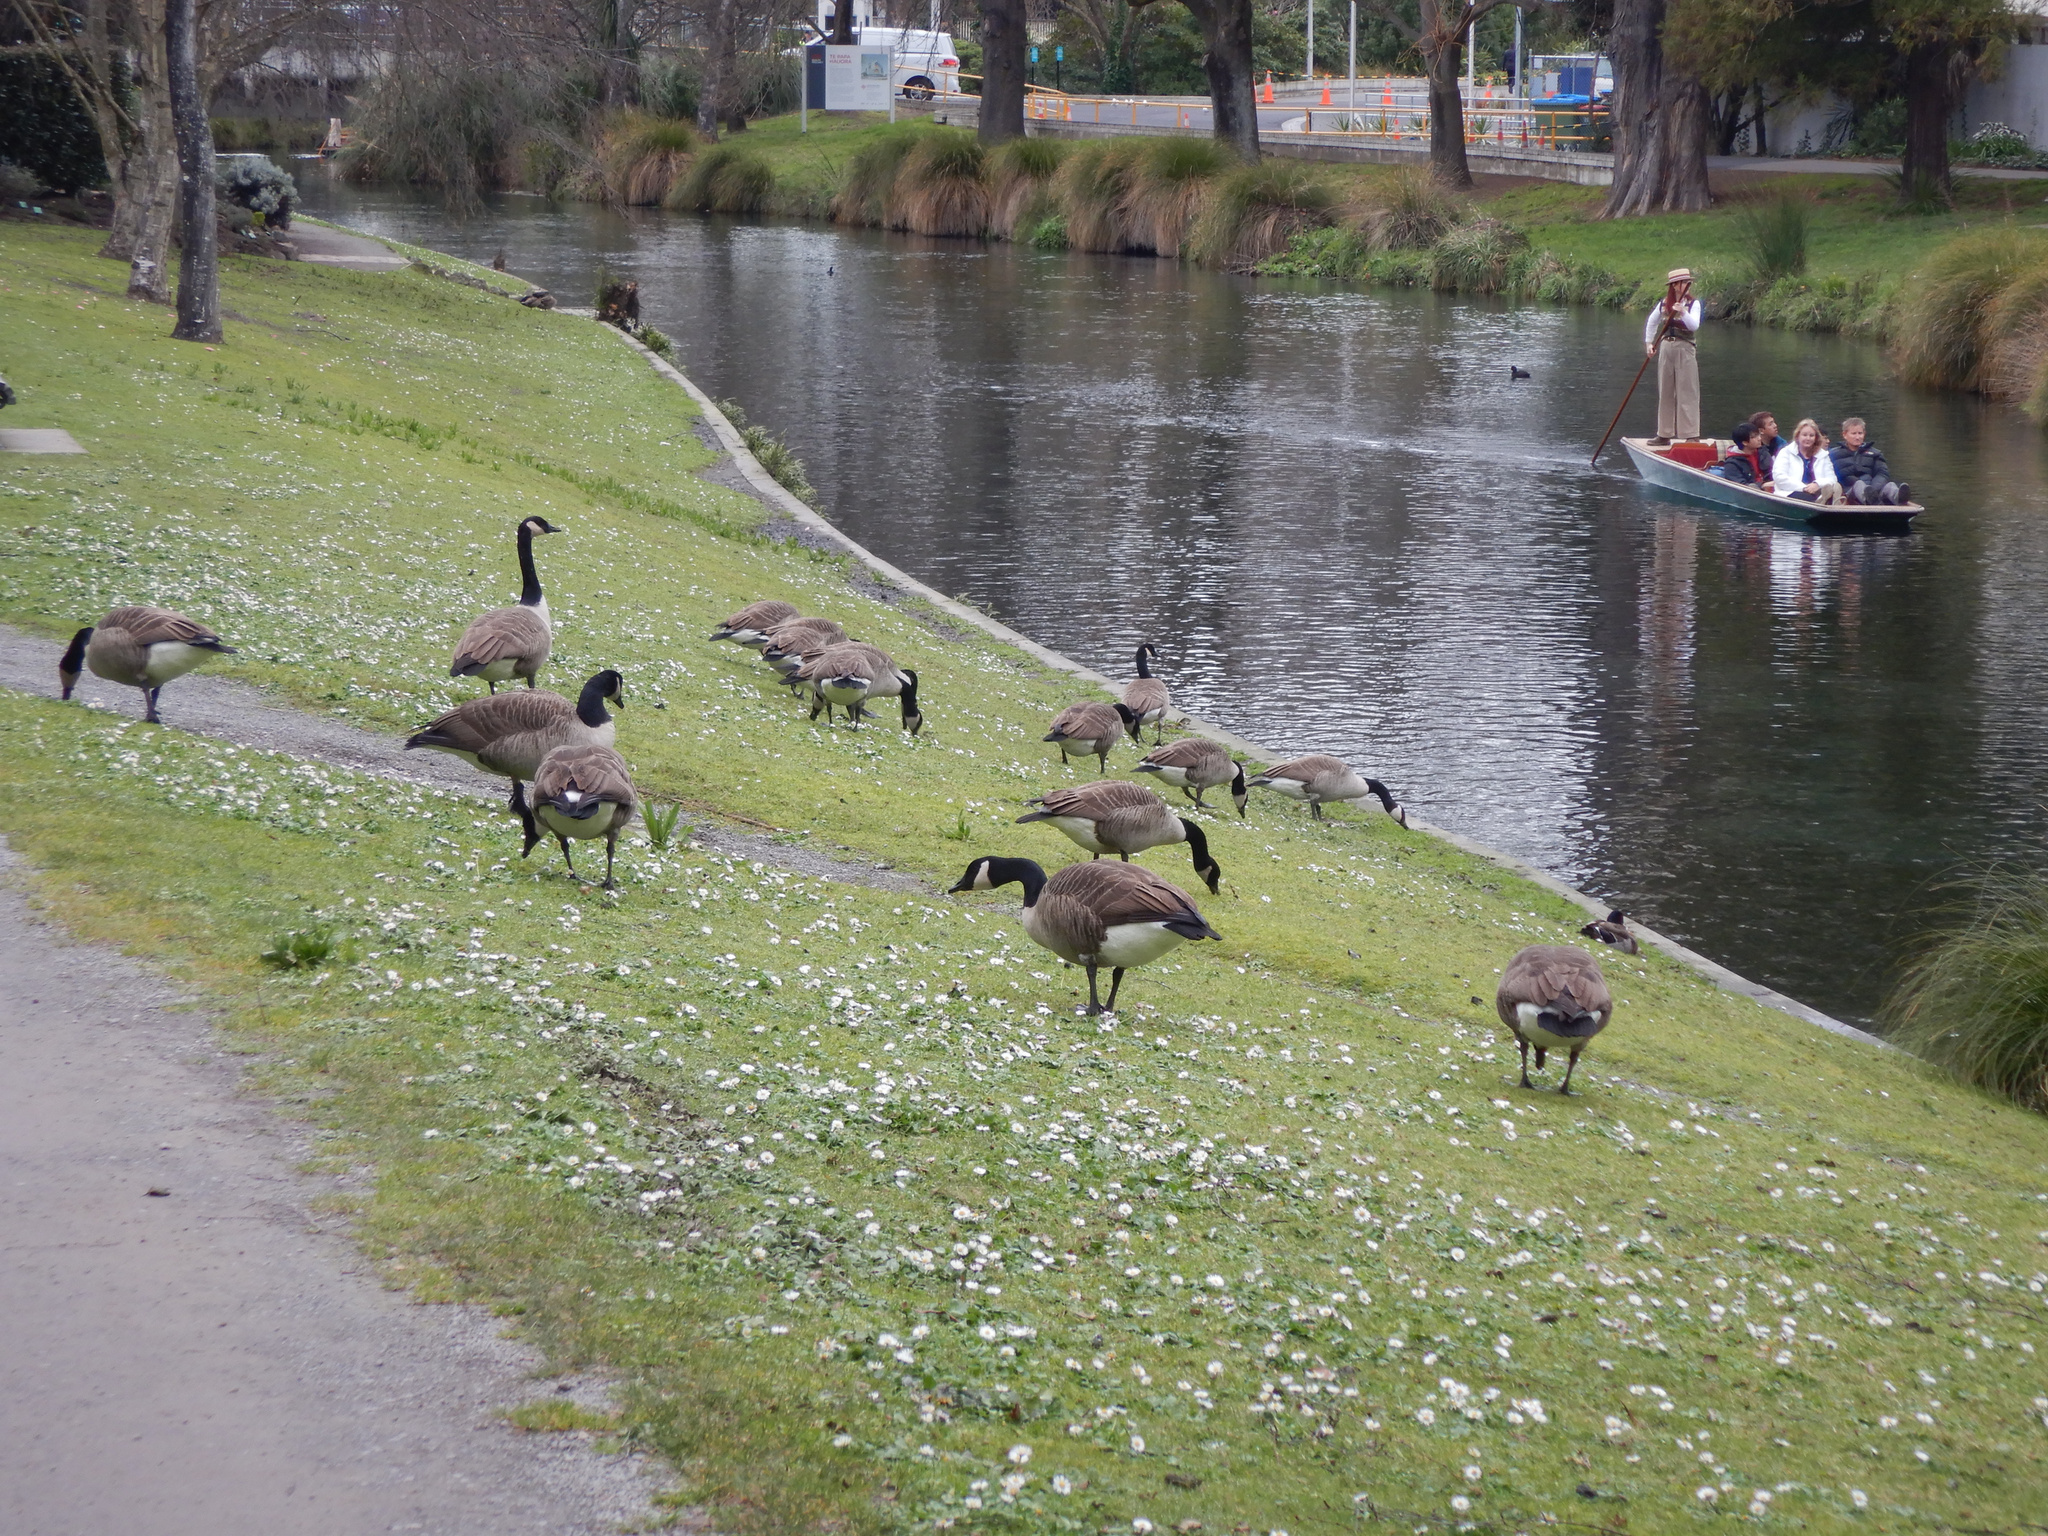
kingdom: Animalia
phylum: Chordata
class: Aves
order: Anseriformes
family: Anatidae
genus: Branta
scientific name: Branta canadensis
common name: Canada goose
